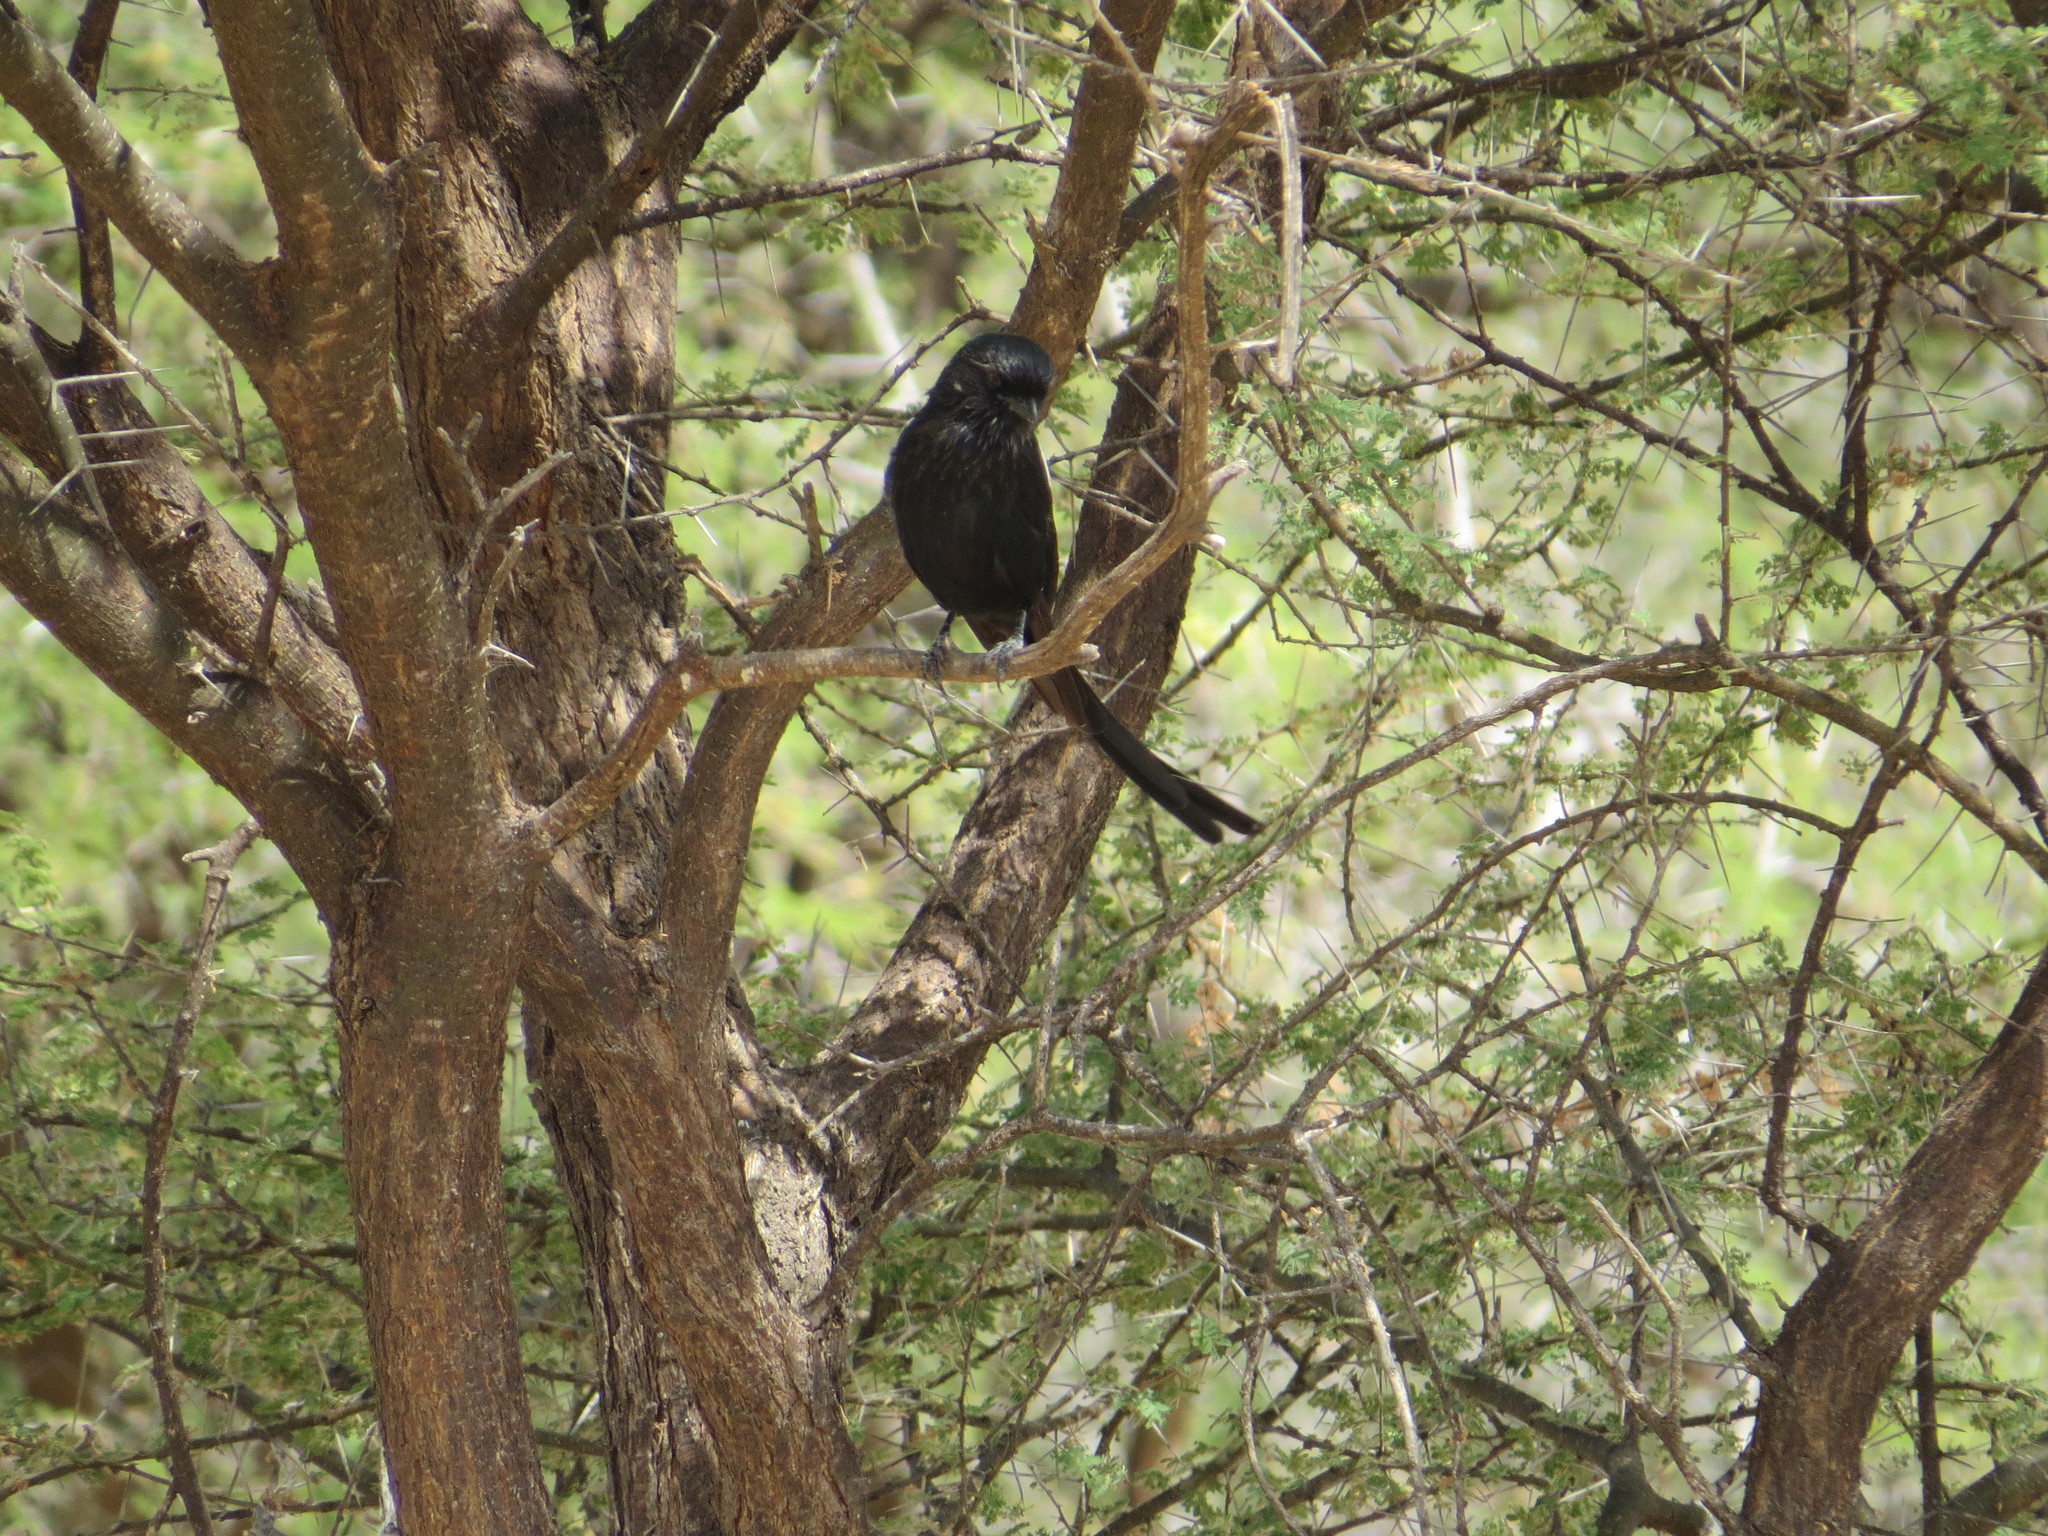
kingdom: Animalia
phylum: Chordata
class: Aves
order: Passeriformes
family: Laniidae
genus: Urolestes
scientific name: Urolestes melanoleucus
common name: Magpie shrike
